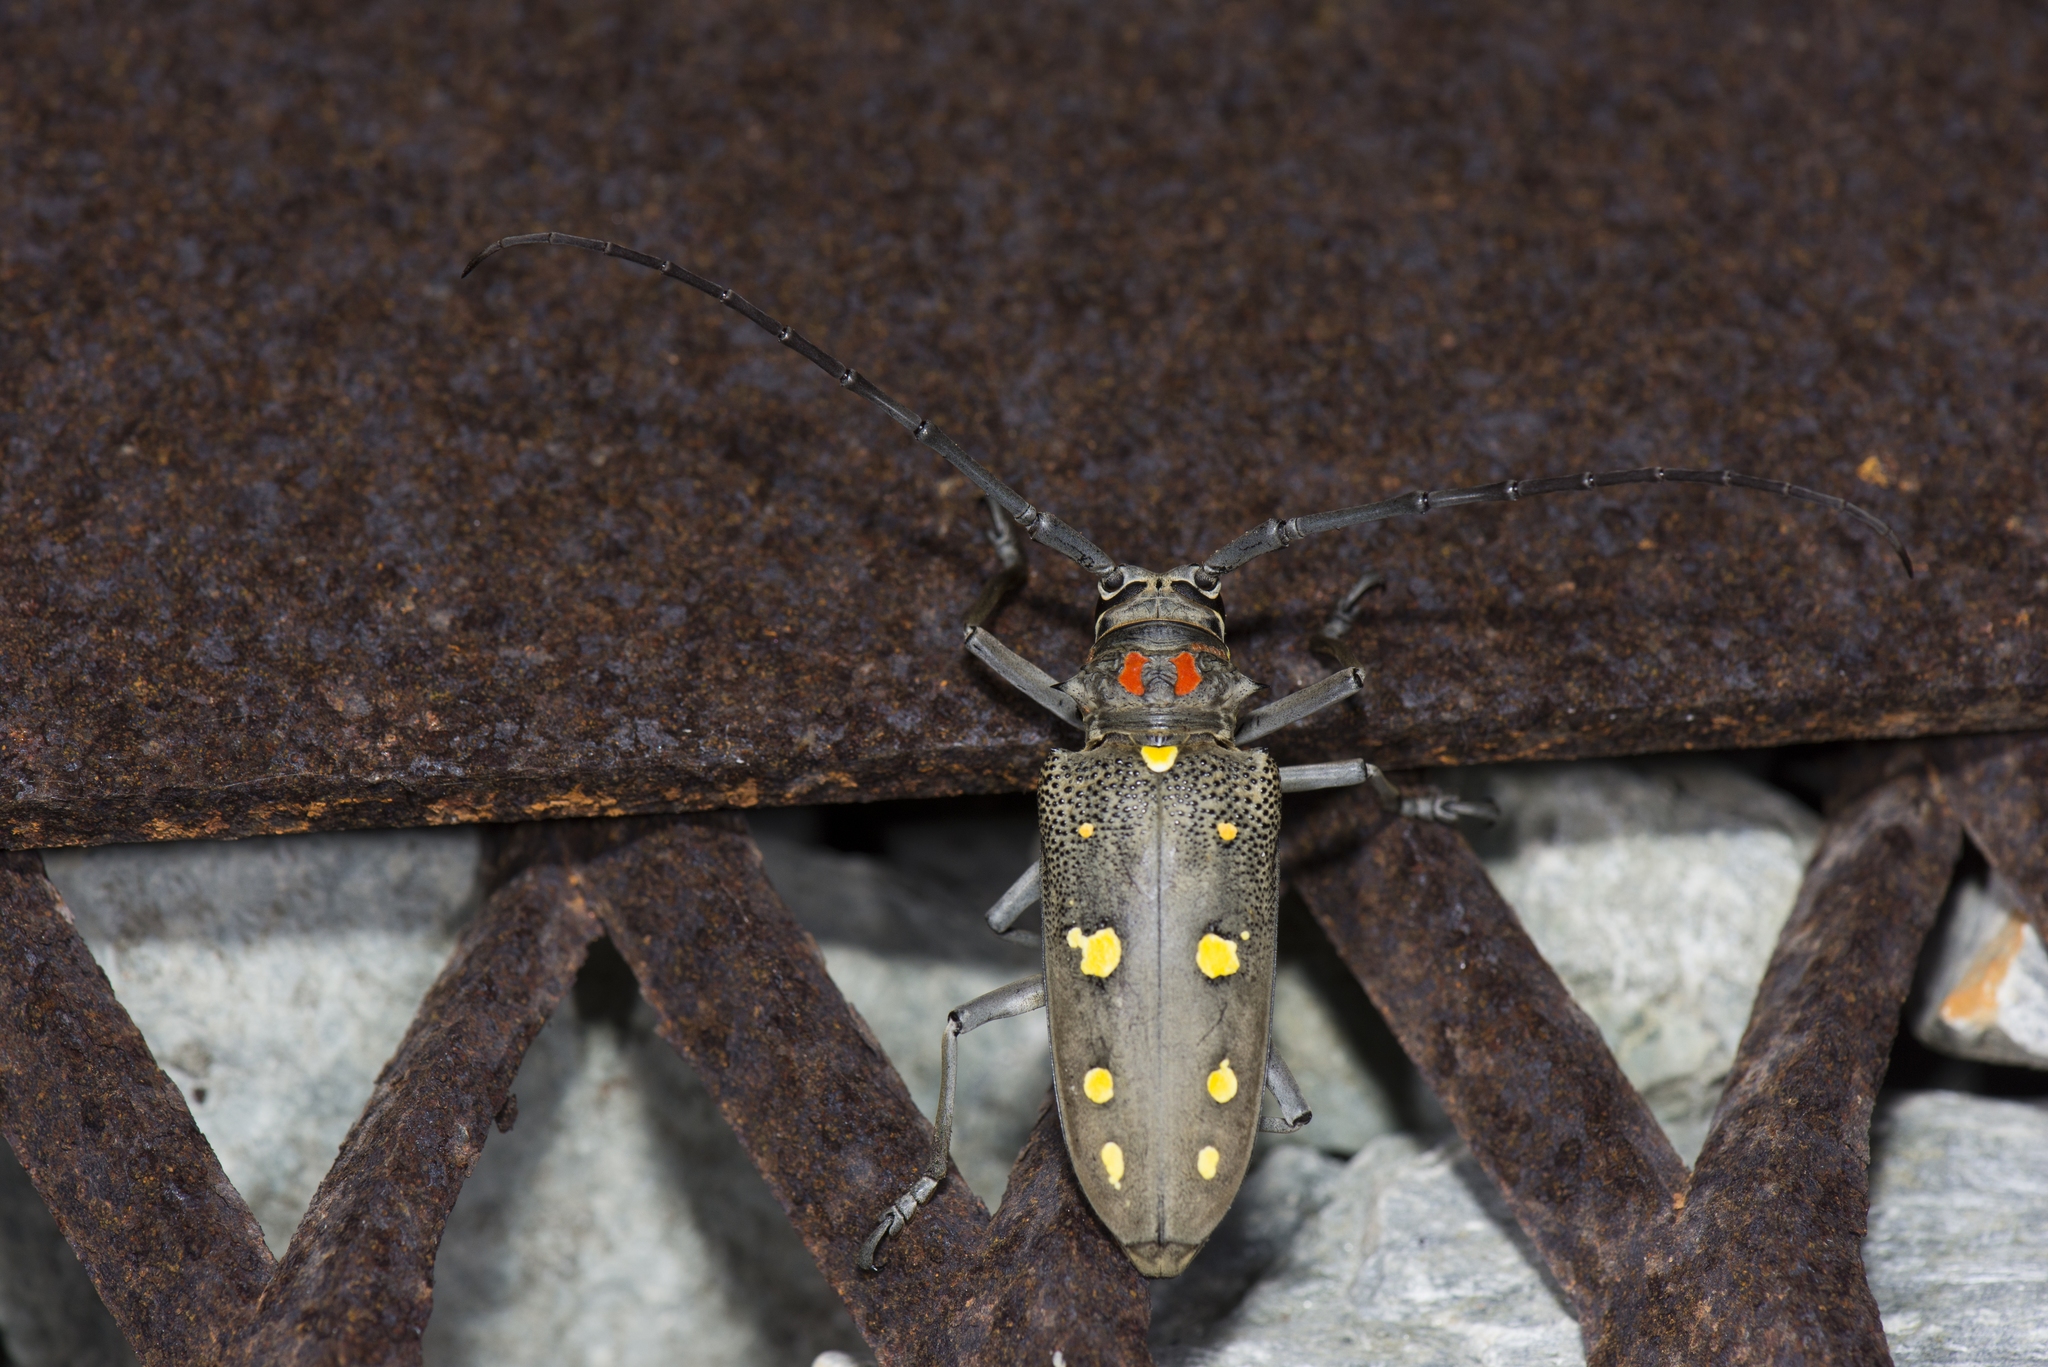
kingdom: Animalia
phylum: Arthropoda
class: Insecta
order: Coleoptera
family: Cerambycidae
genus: Batocera
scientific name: Batocera rubus
